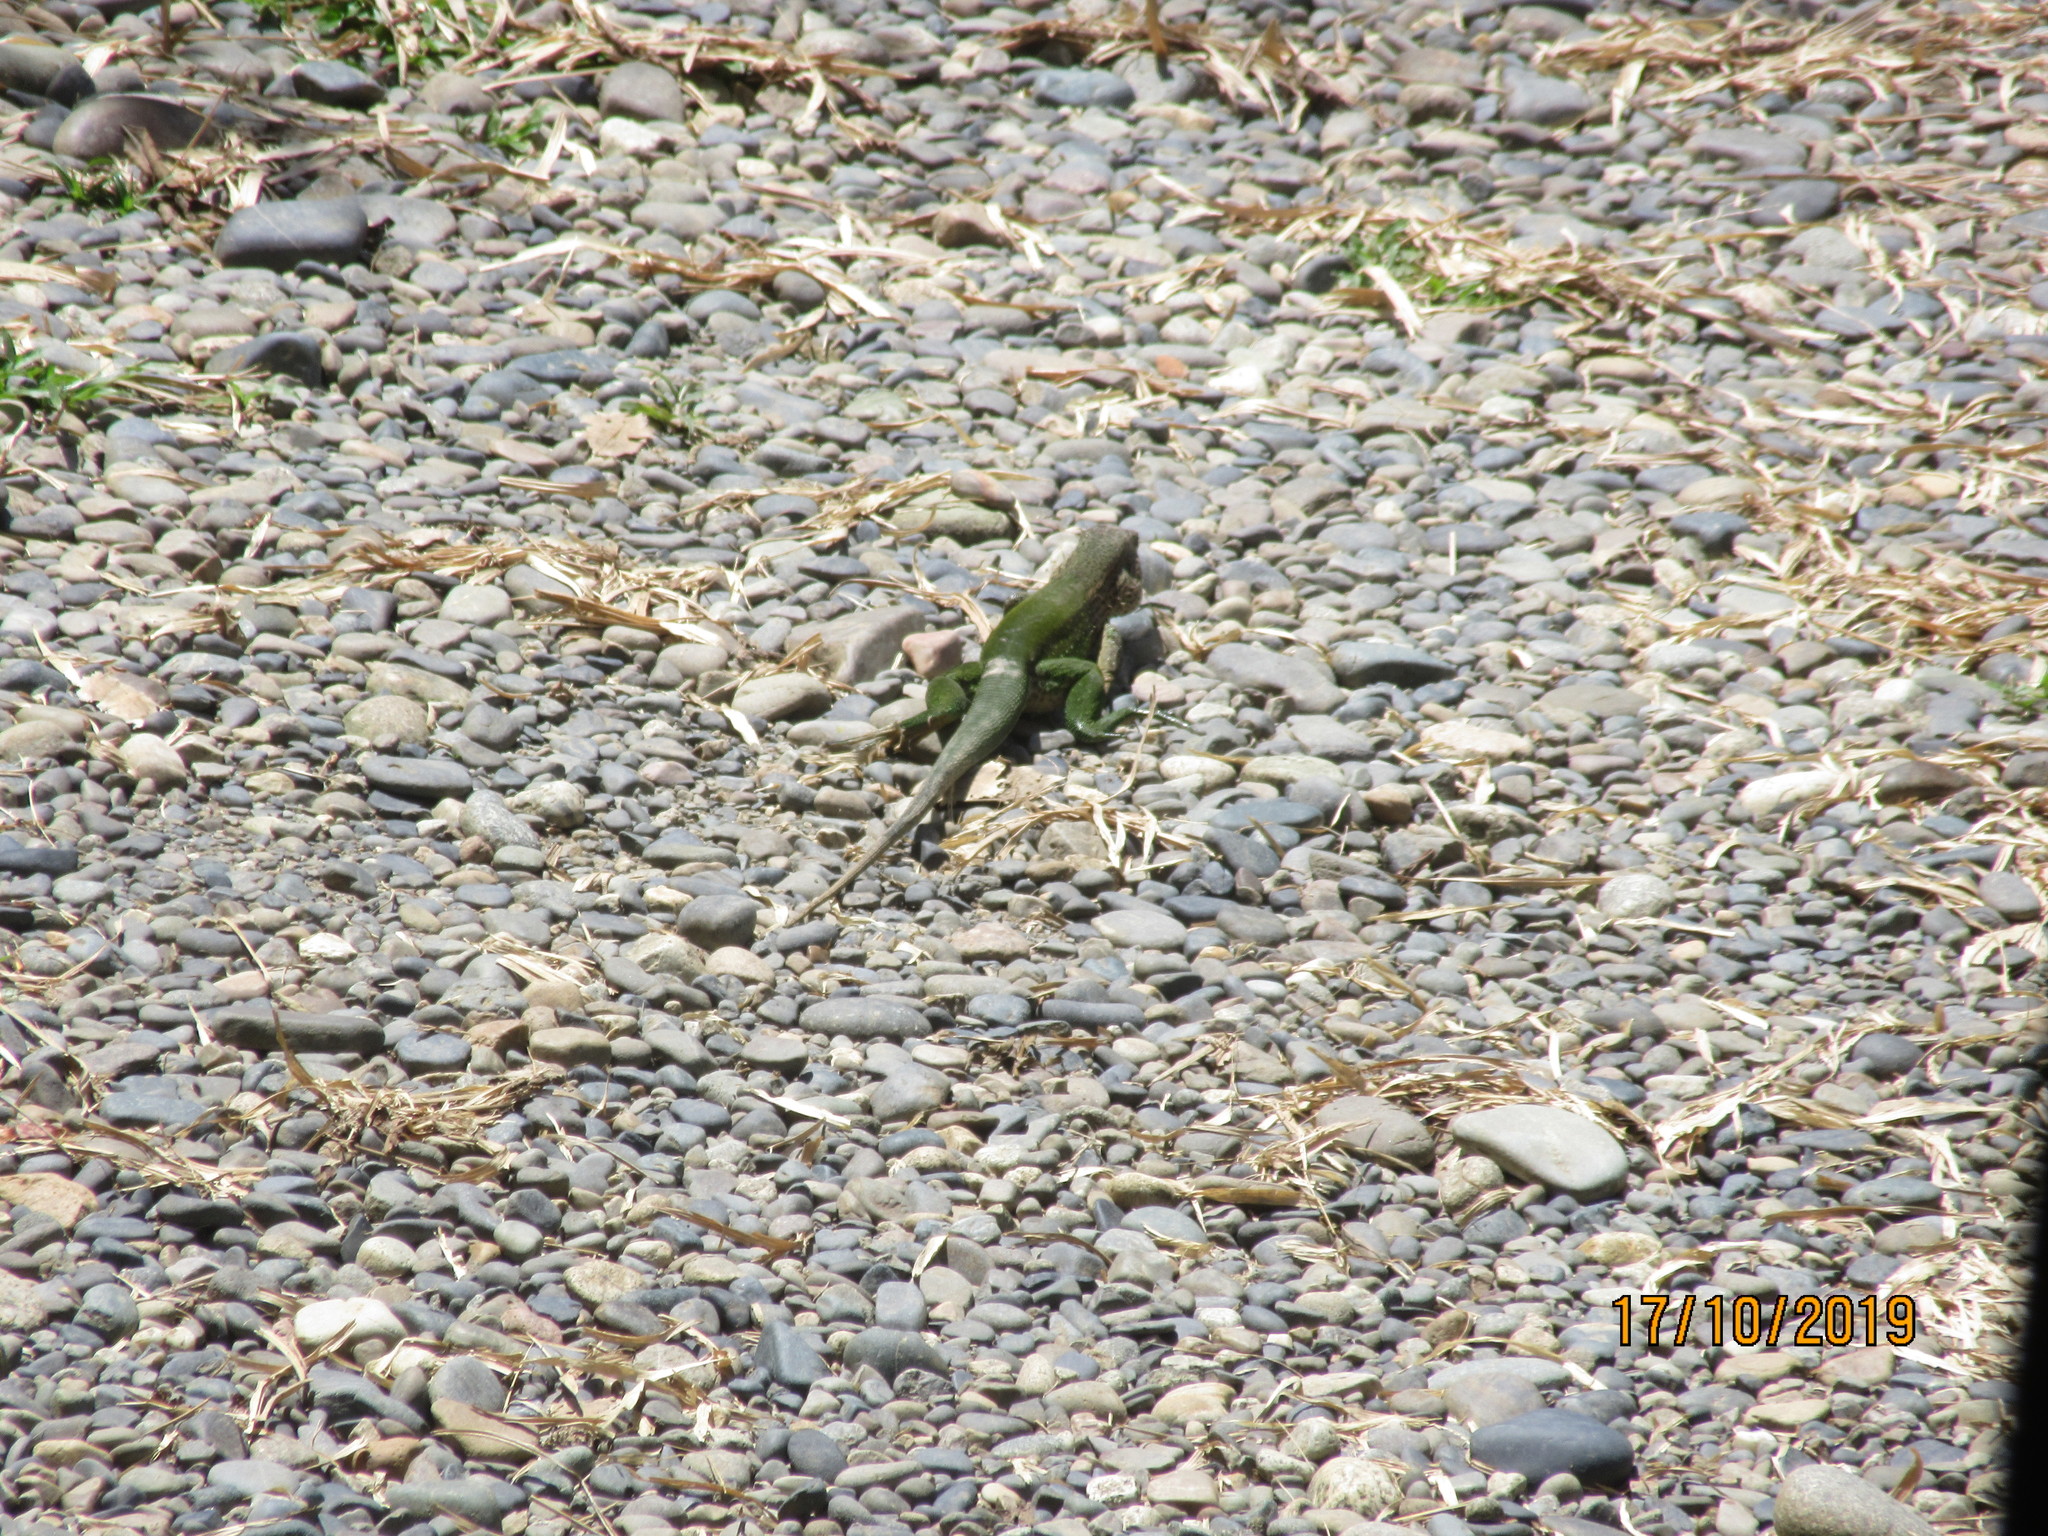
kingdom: Animalia
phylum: Chordata
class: Squamata
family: Teiidae
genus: Ameiva
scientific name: Ameiva ameiva
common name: Giant ameiva
